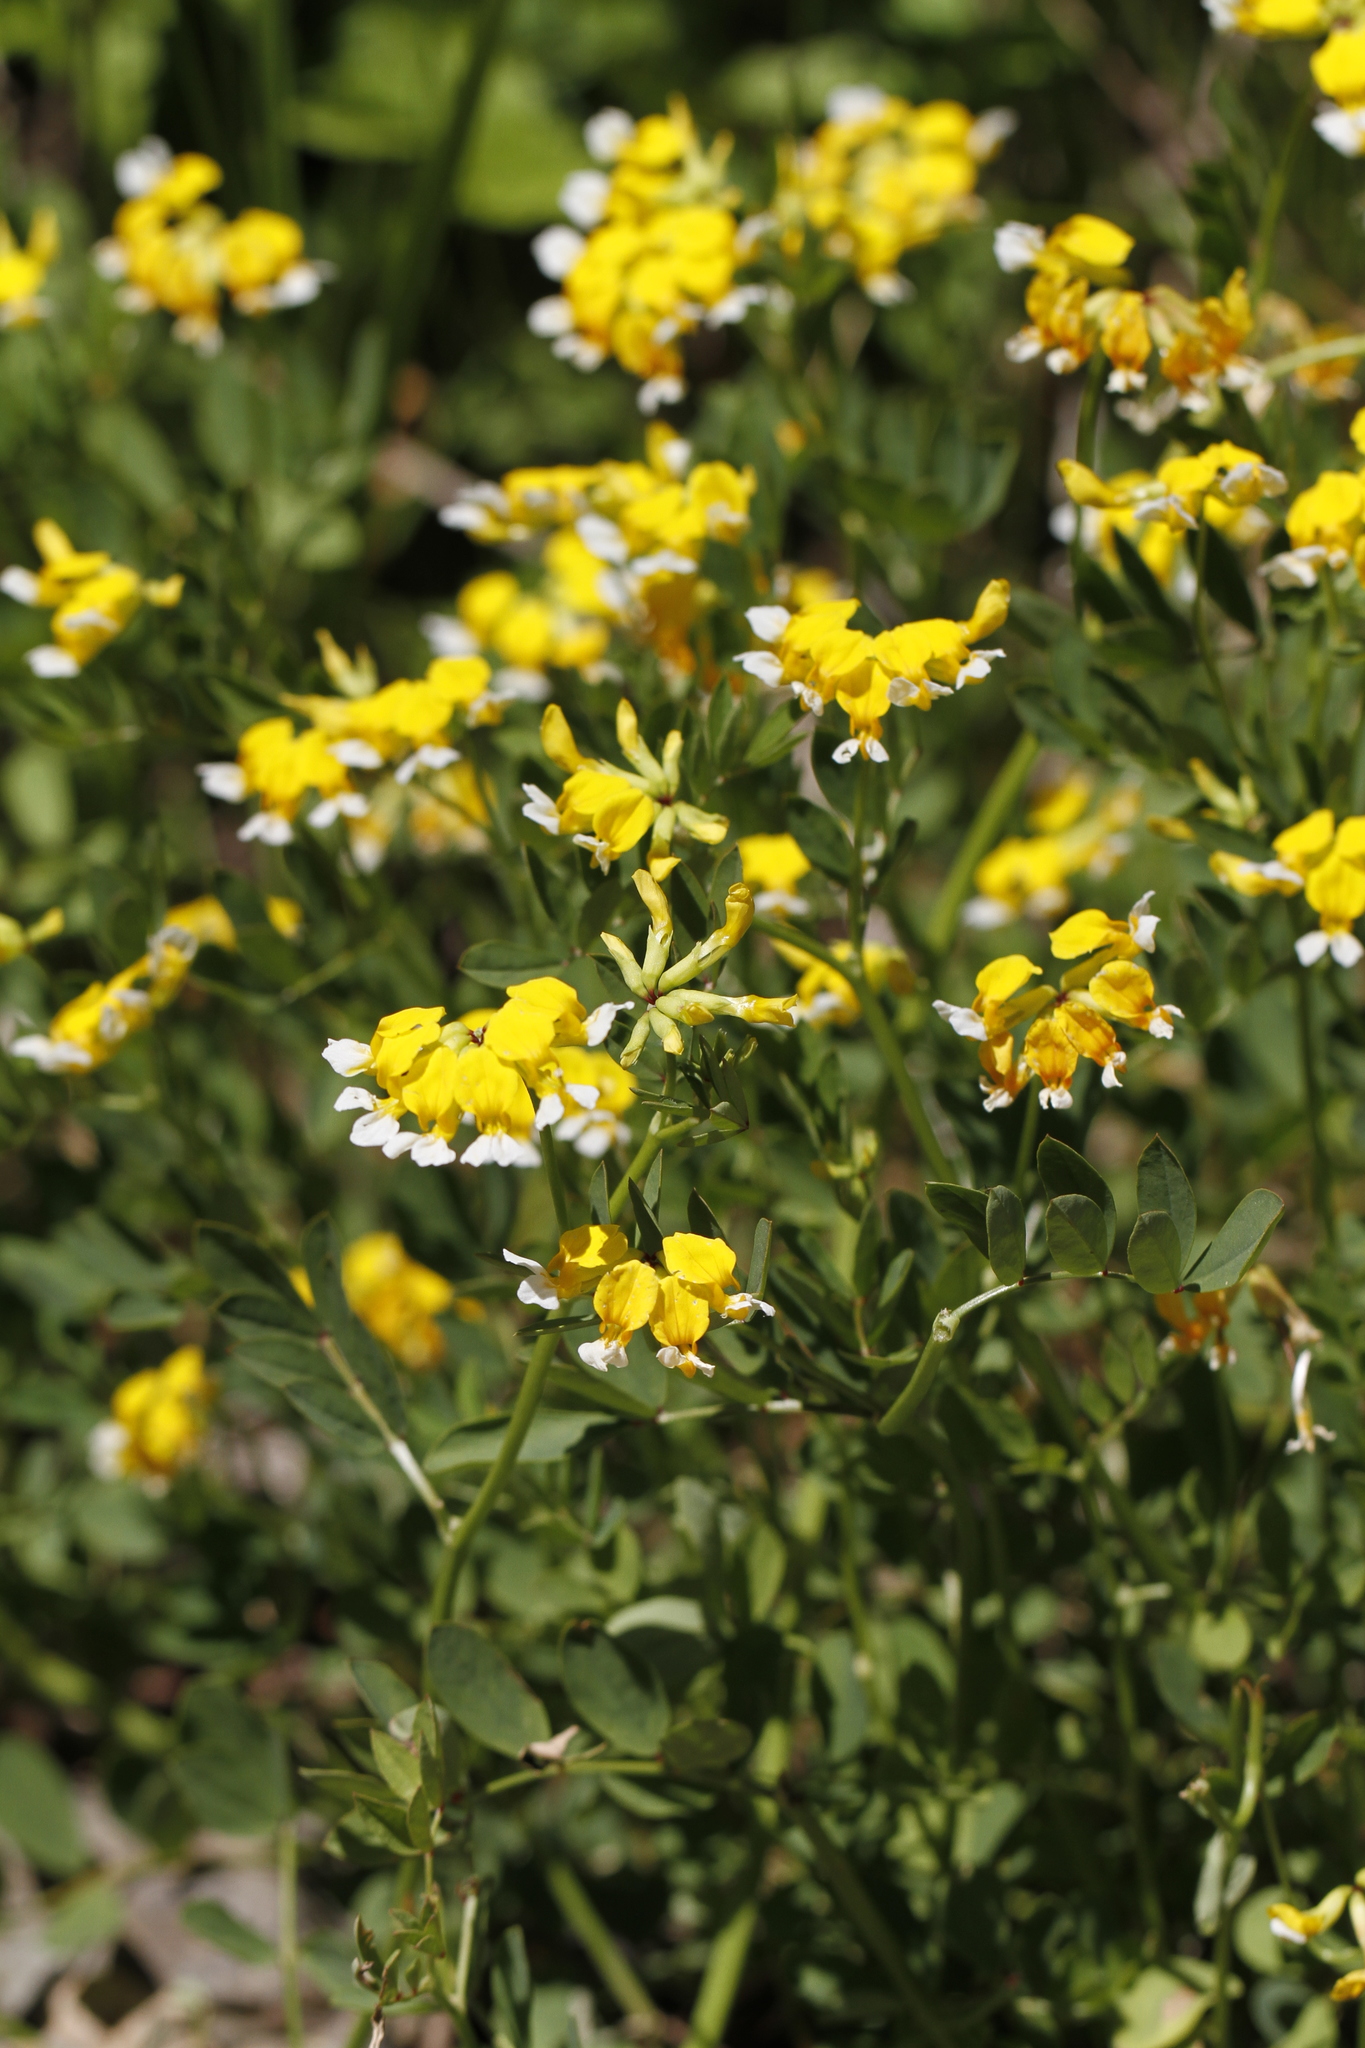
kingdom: Plantae
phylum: Tracheophyta
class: Magnoliopsida
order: Fabales
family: Fabaceae
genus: Hosackia
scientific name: Hosackia pinnata
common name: Bog bird's-foot trefoil
